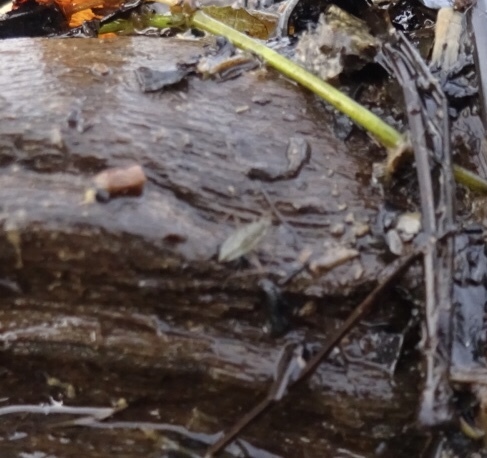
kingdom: Animalia
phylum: Arthropoda
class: Insecta
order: Hemiptera
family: Mesoveliidae
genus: Mesovelia
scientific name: Mesovelia
